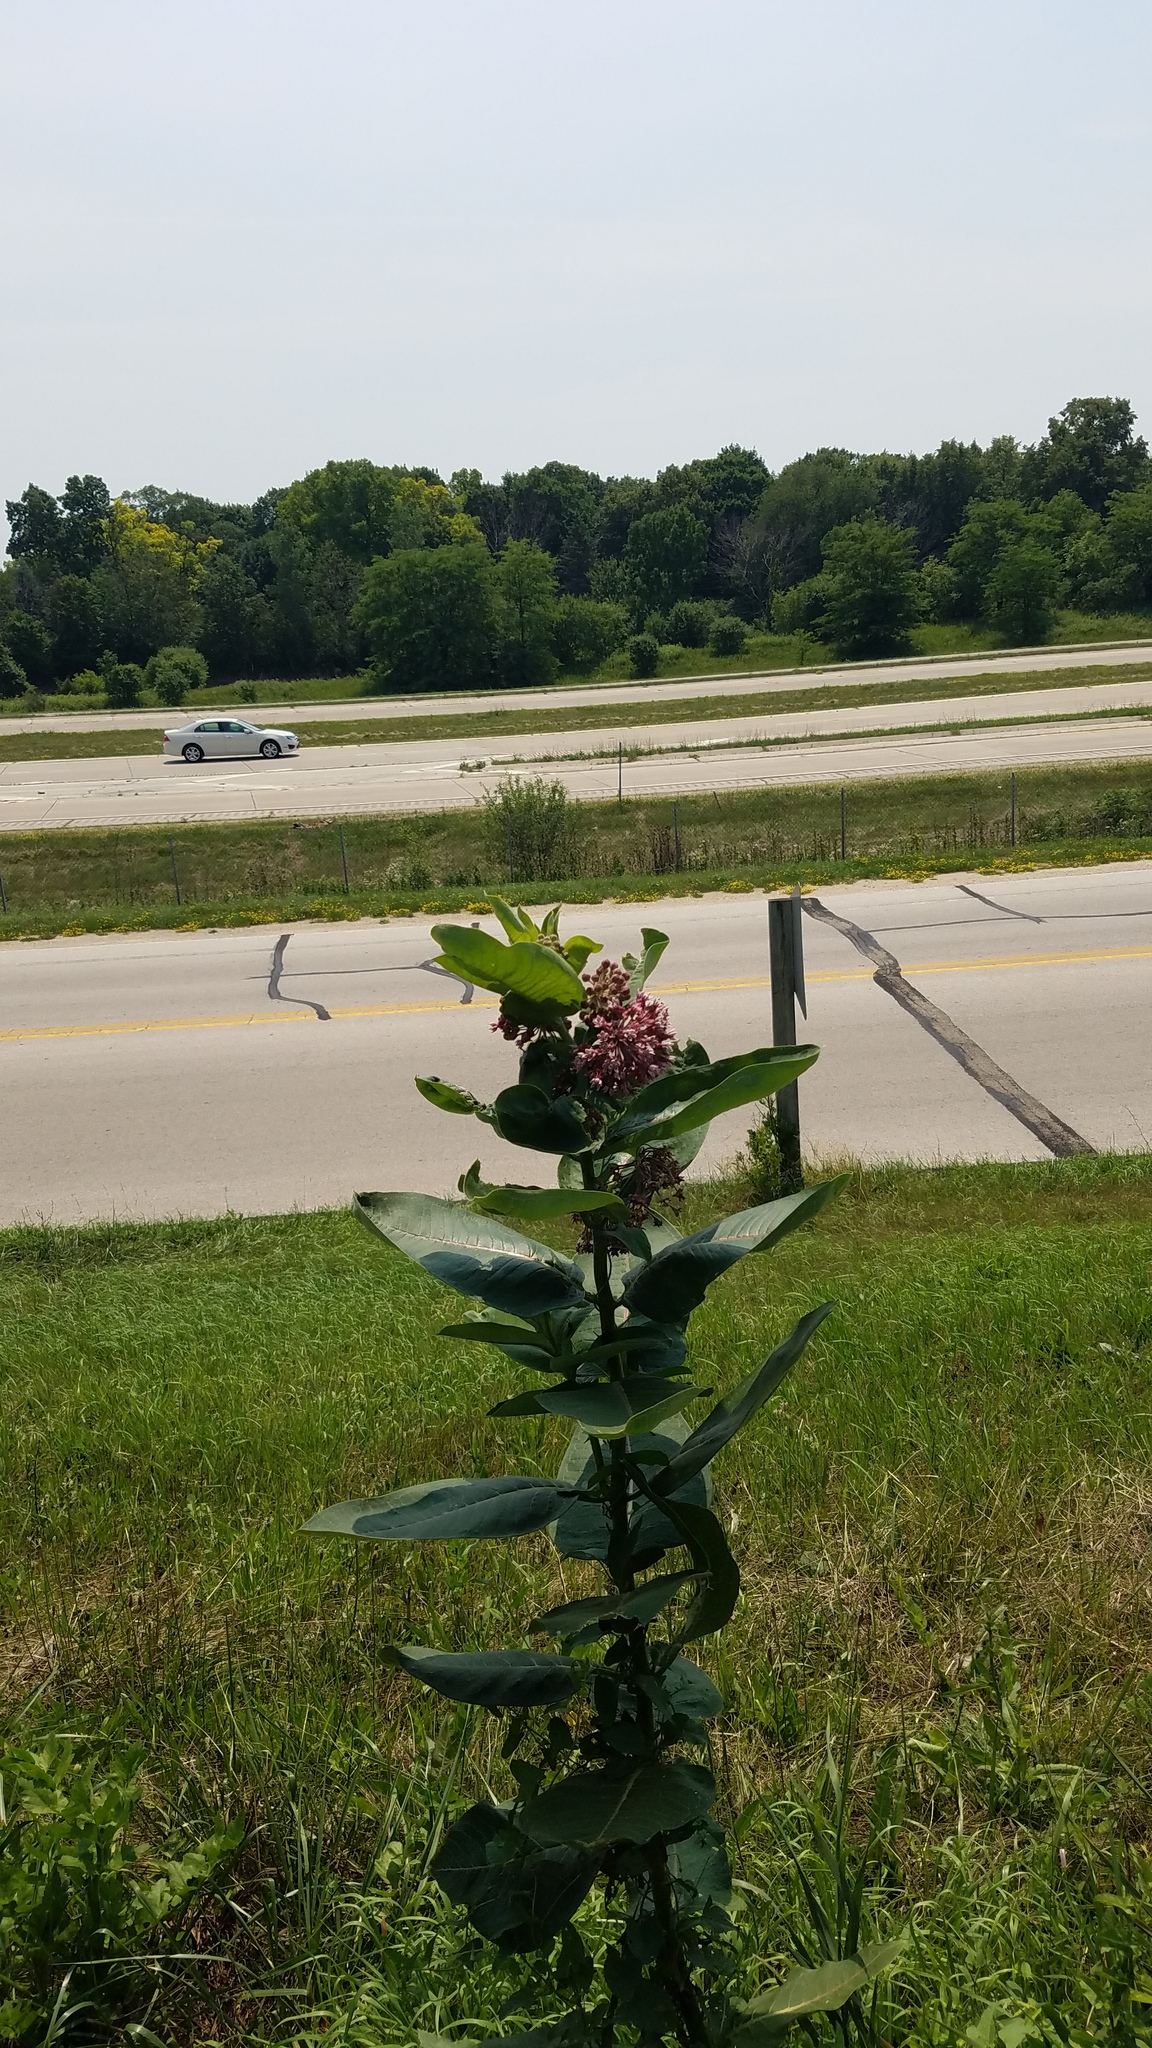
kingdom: Plantae
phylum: Tracheophyta
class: Magnoliopsida
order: Gentianales
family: Apocynaceae
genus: Asclepias
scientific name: Asclepias syriaca
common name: Common milkweed
